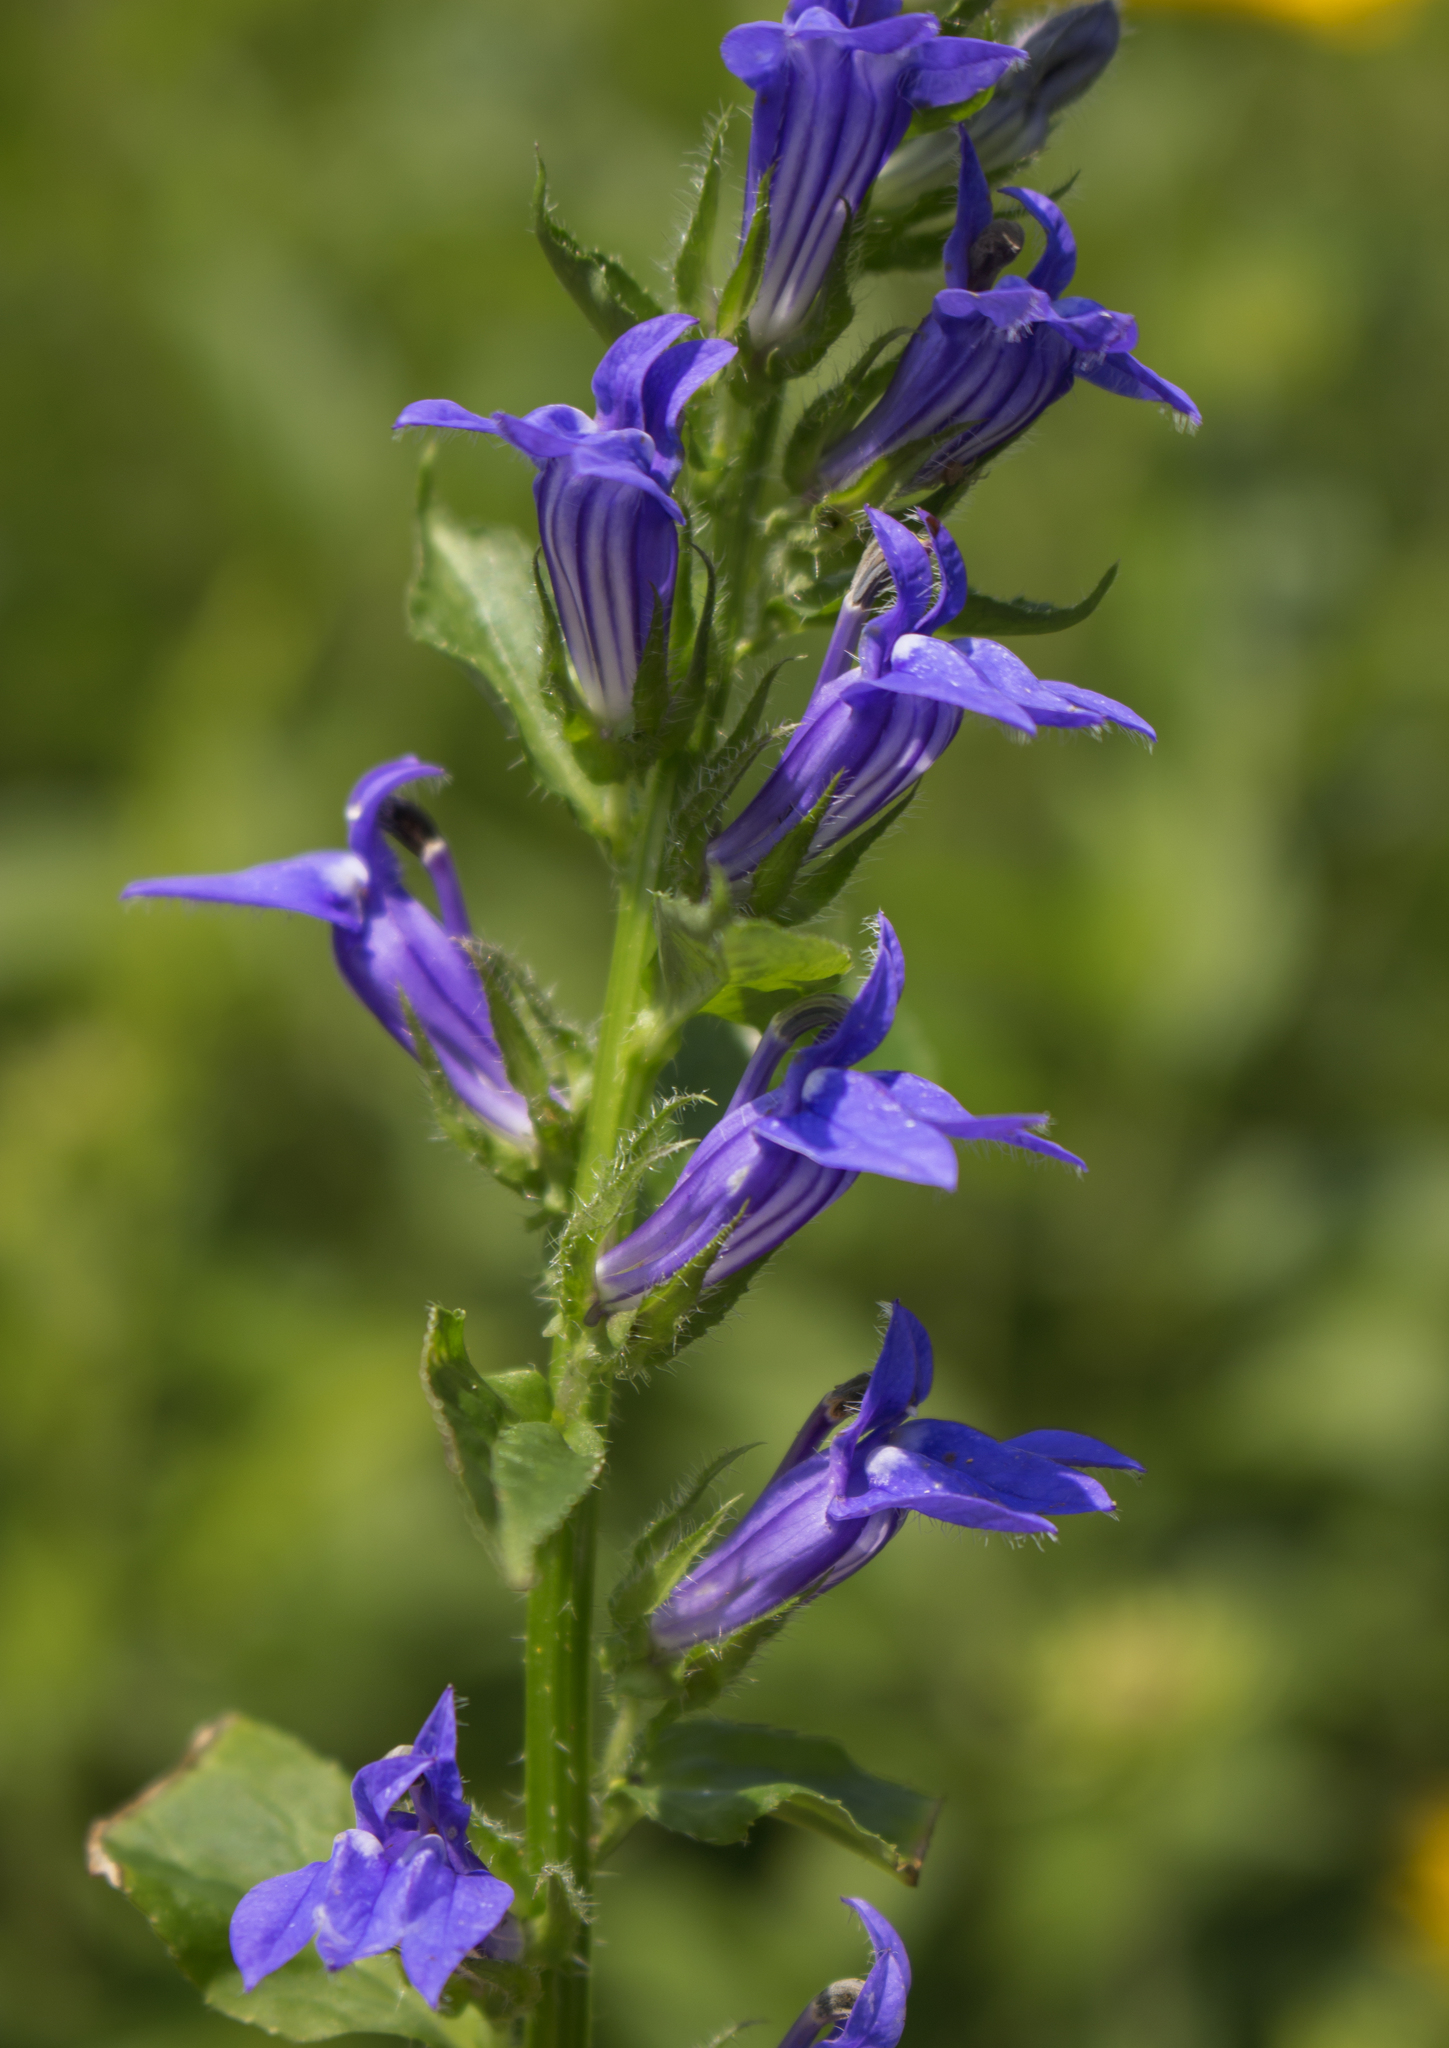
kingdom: Plantae
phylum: Tracheophyta
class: Magnoliopsida
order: Asterales
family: Campanulaceae
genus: Lobelia
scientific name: Lobelia siphilitica
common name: Great lobelia
